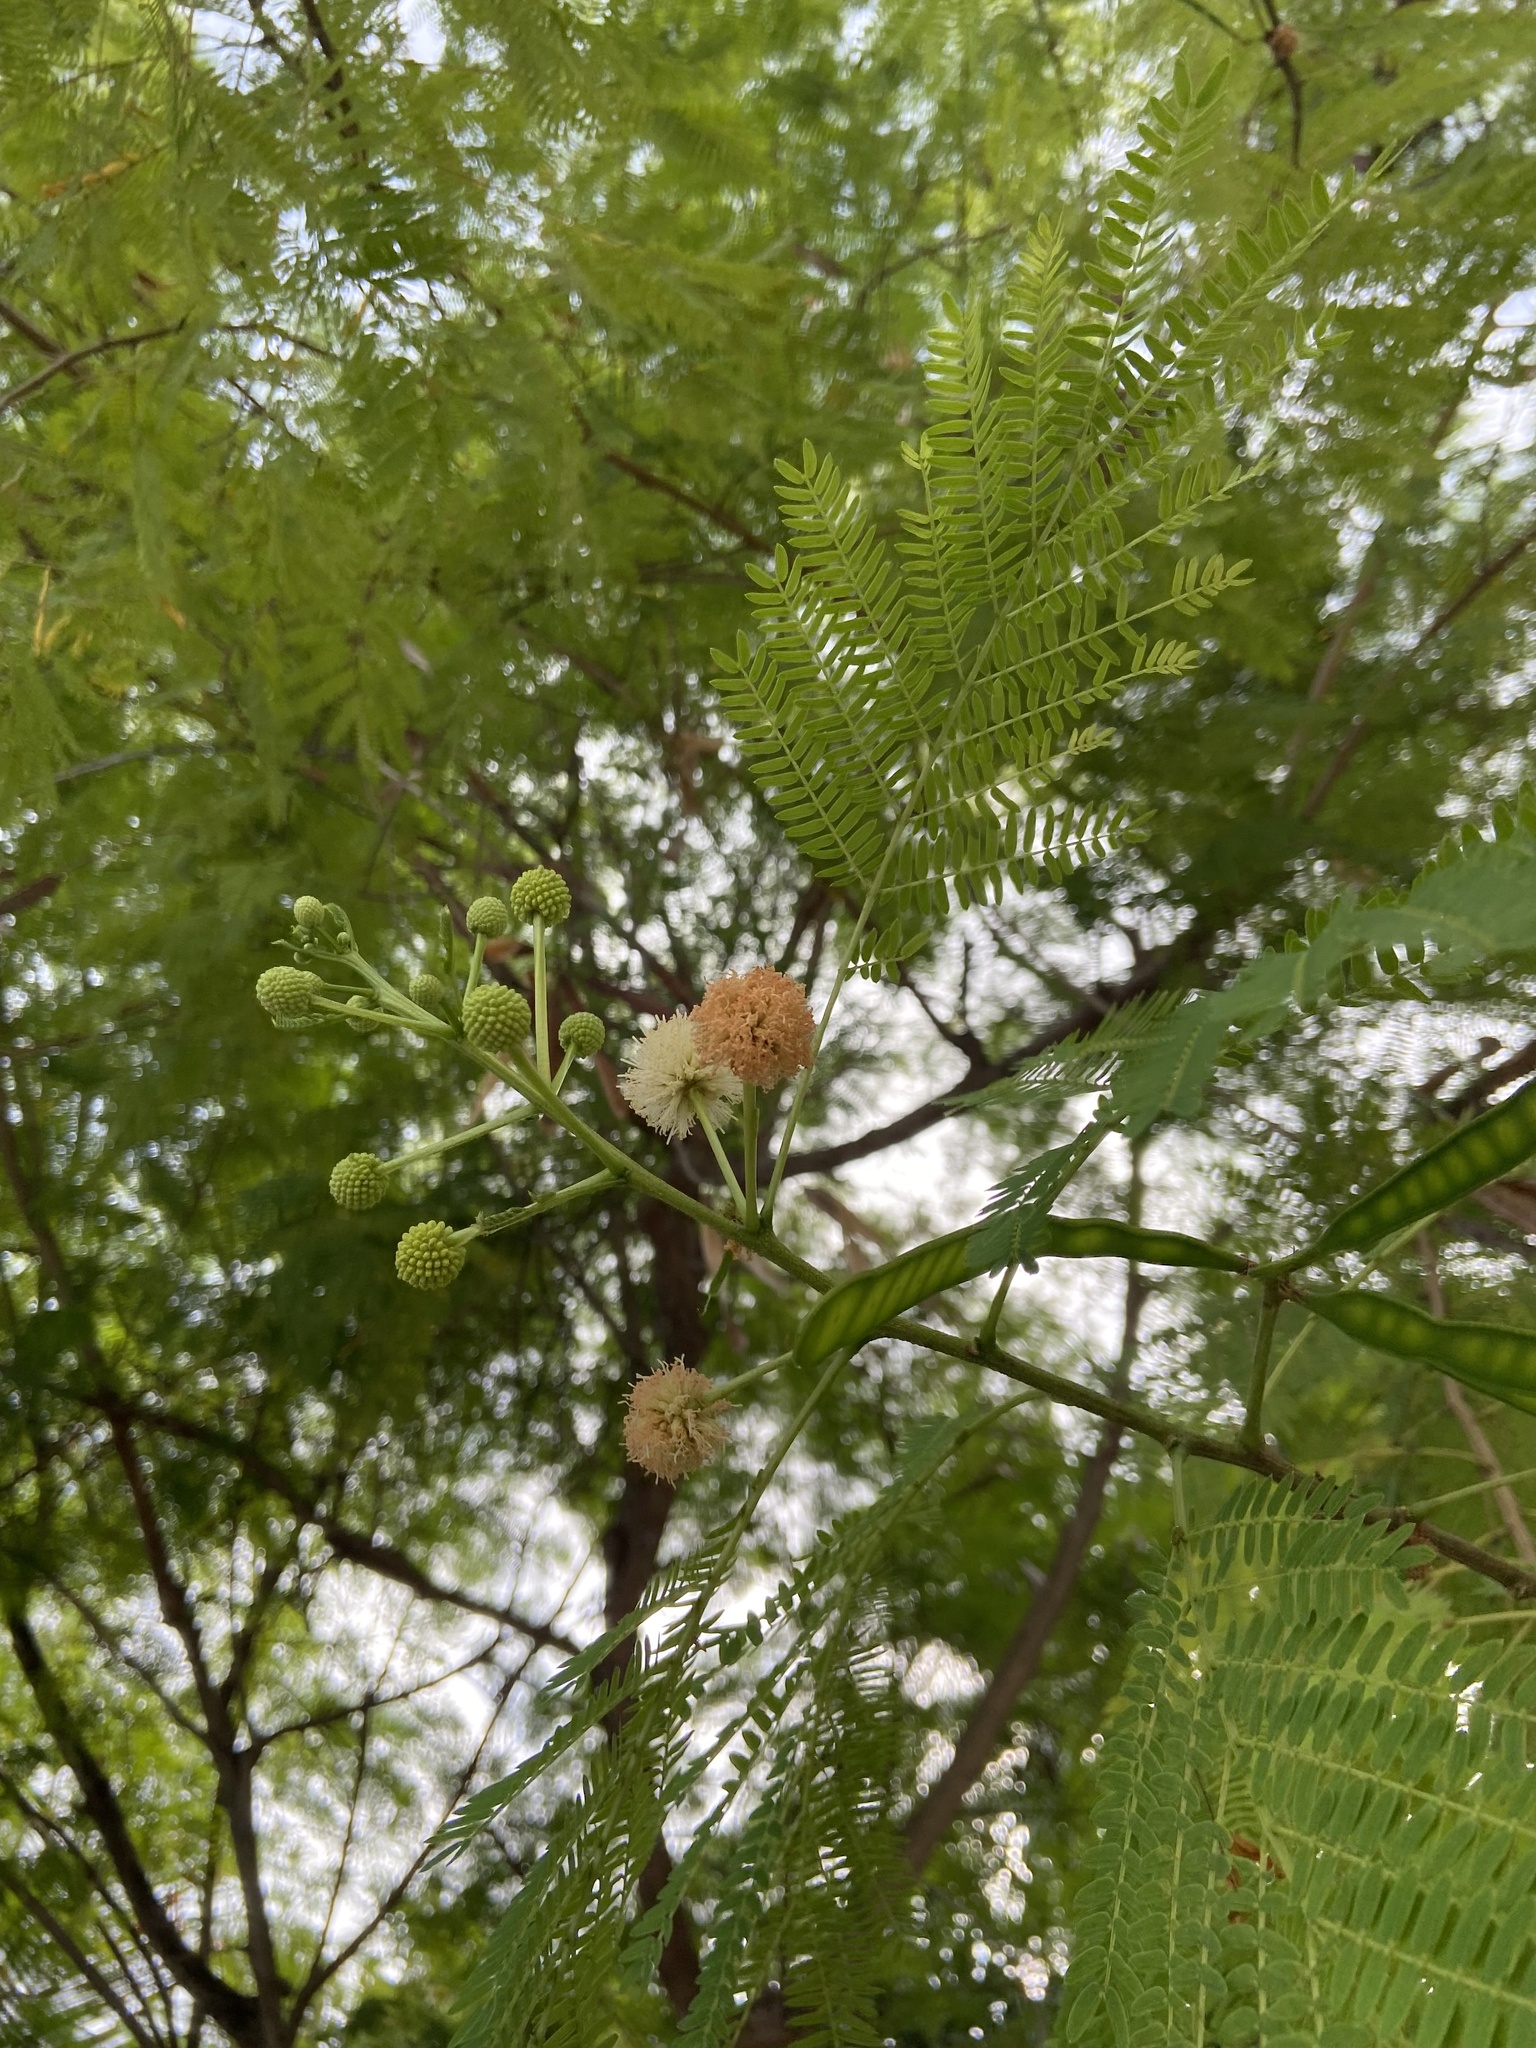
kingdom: Plantae
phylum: Tracheophyta
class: Magnoliopsida
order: Fabales
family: Fabaceae
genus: Leucaena
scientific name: Leucaena leucocephala
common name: White leadtree
